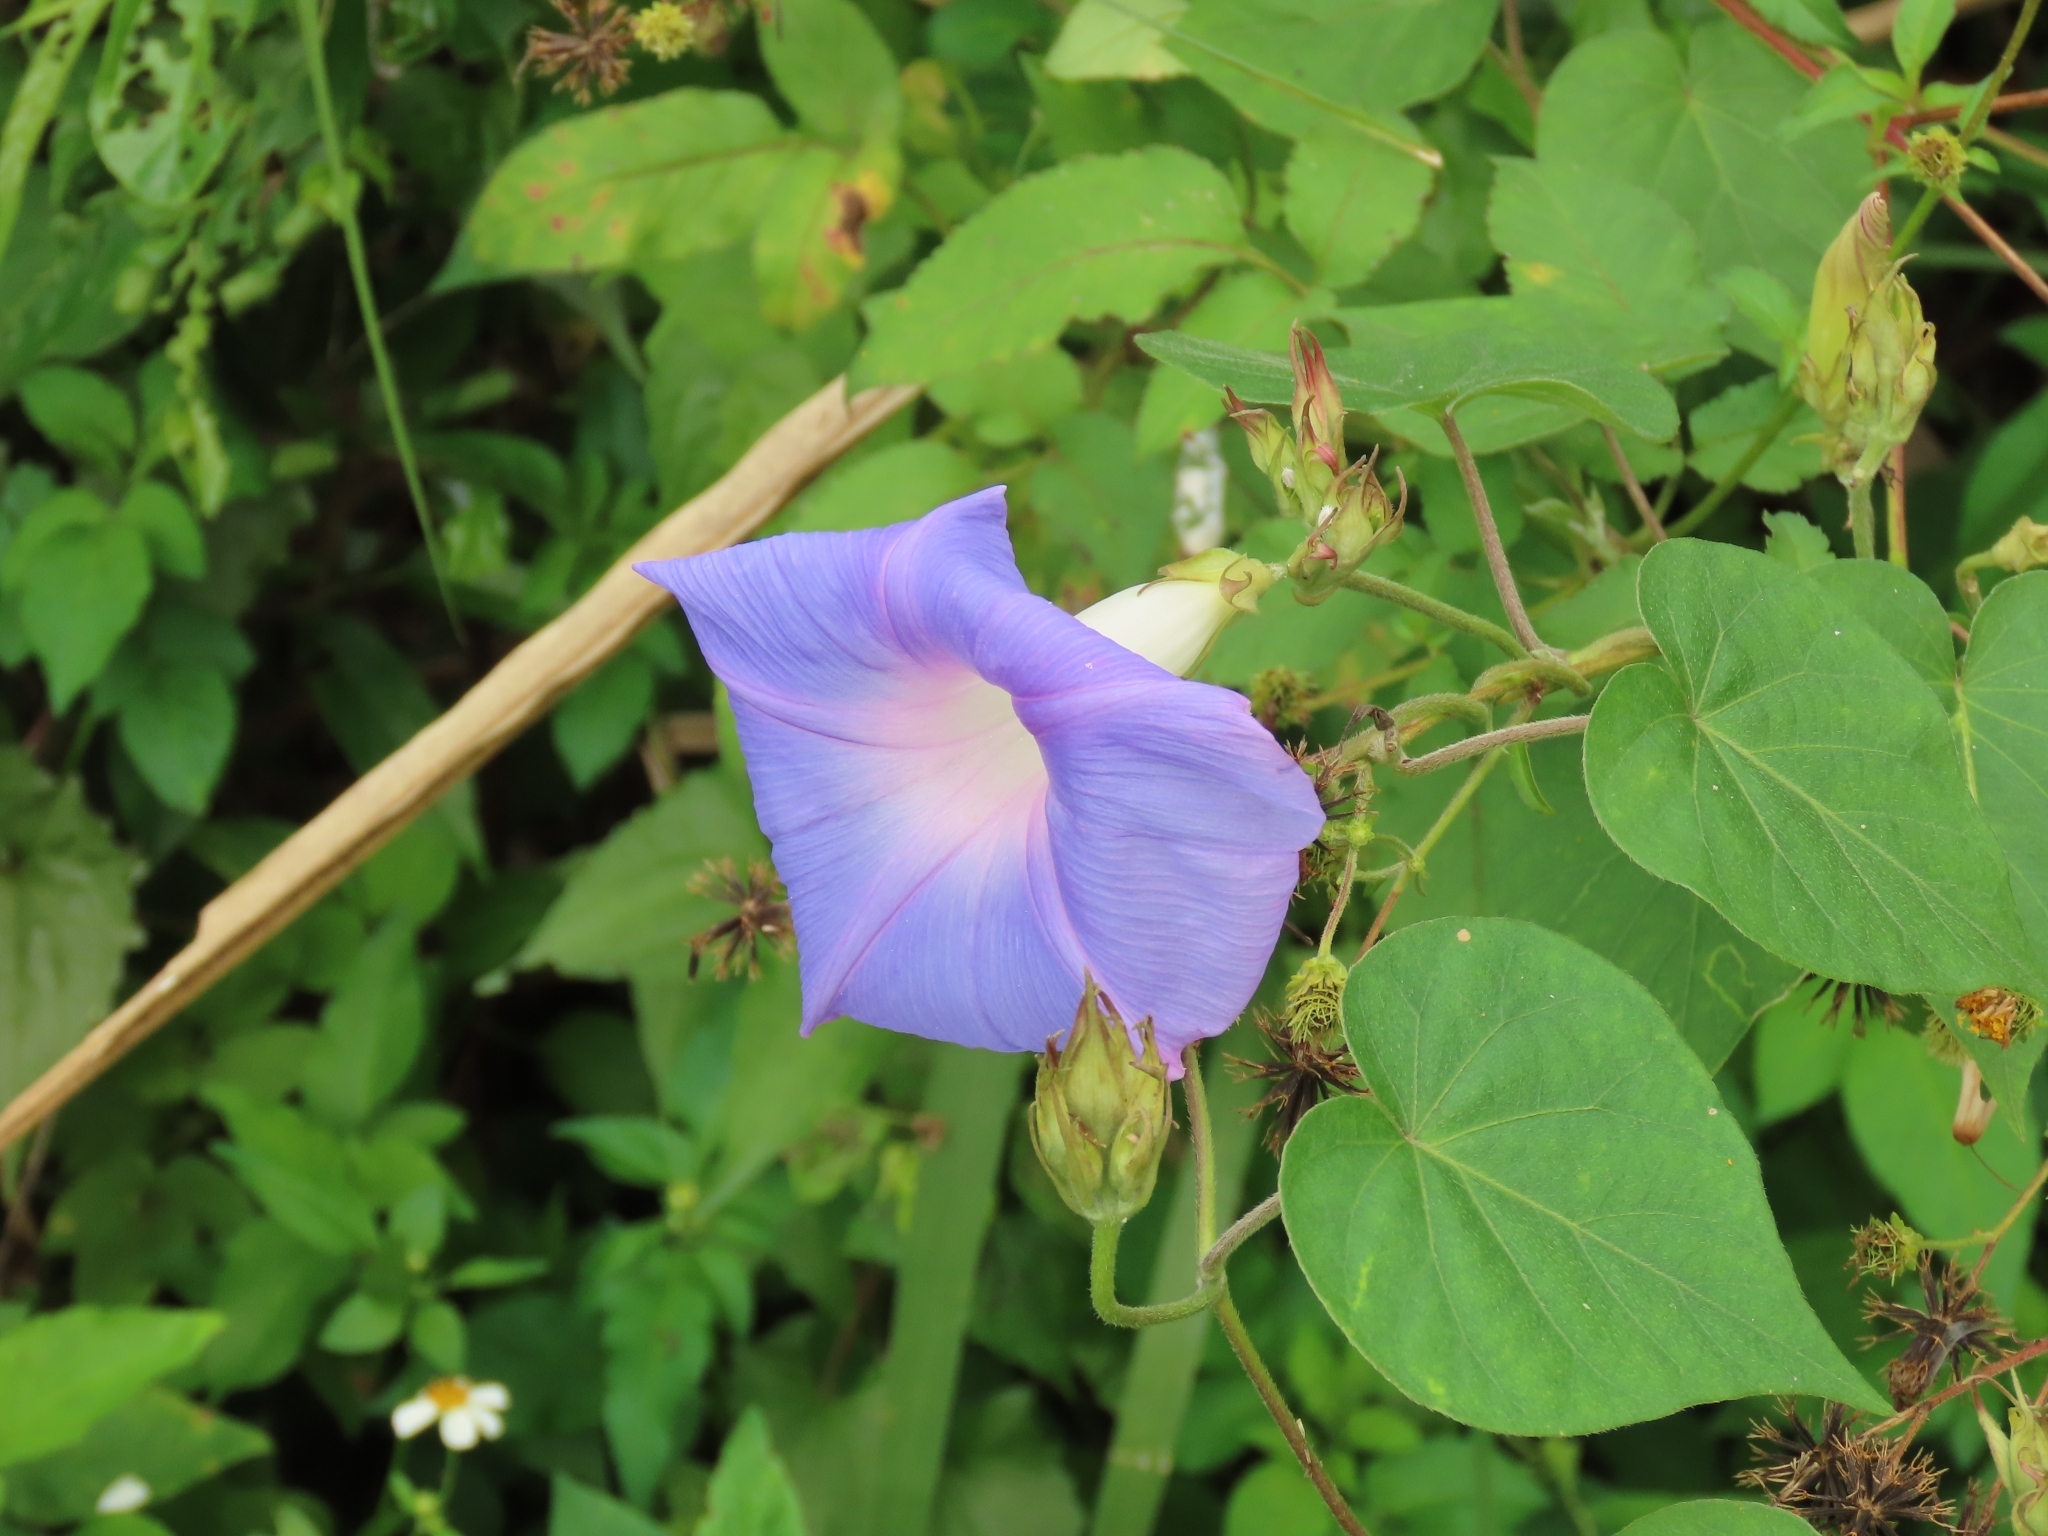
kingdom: Plantae
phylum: Tracheophyta
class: Magnoliopsida
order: Solanales
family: Convolvulaceae
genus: Ipomoea
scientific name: Ipomoea indica
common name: Blue dawnflower
